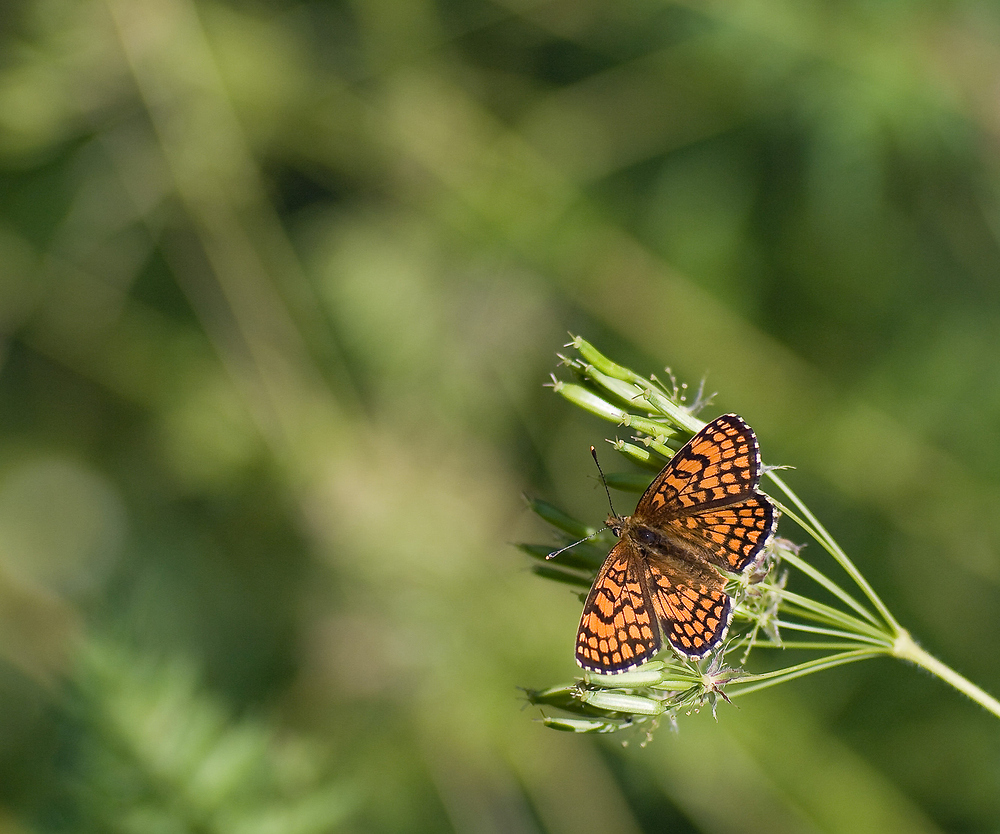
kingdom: Animalia
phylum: Arthropoda
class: Insecta
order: Lepidoptera
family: Nymphalidae
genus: Mellicta
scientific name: Mellicta parthenoides
